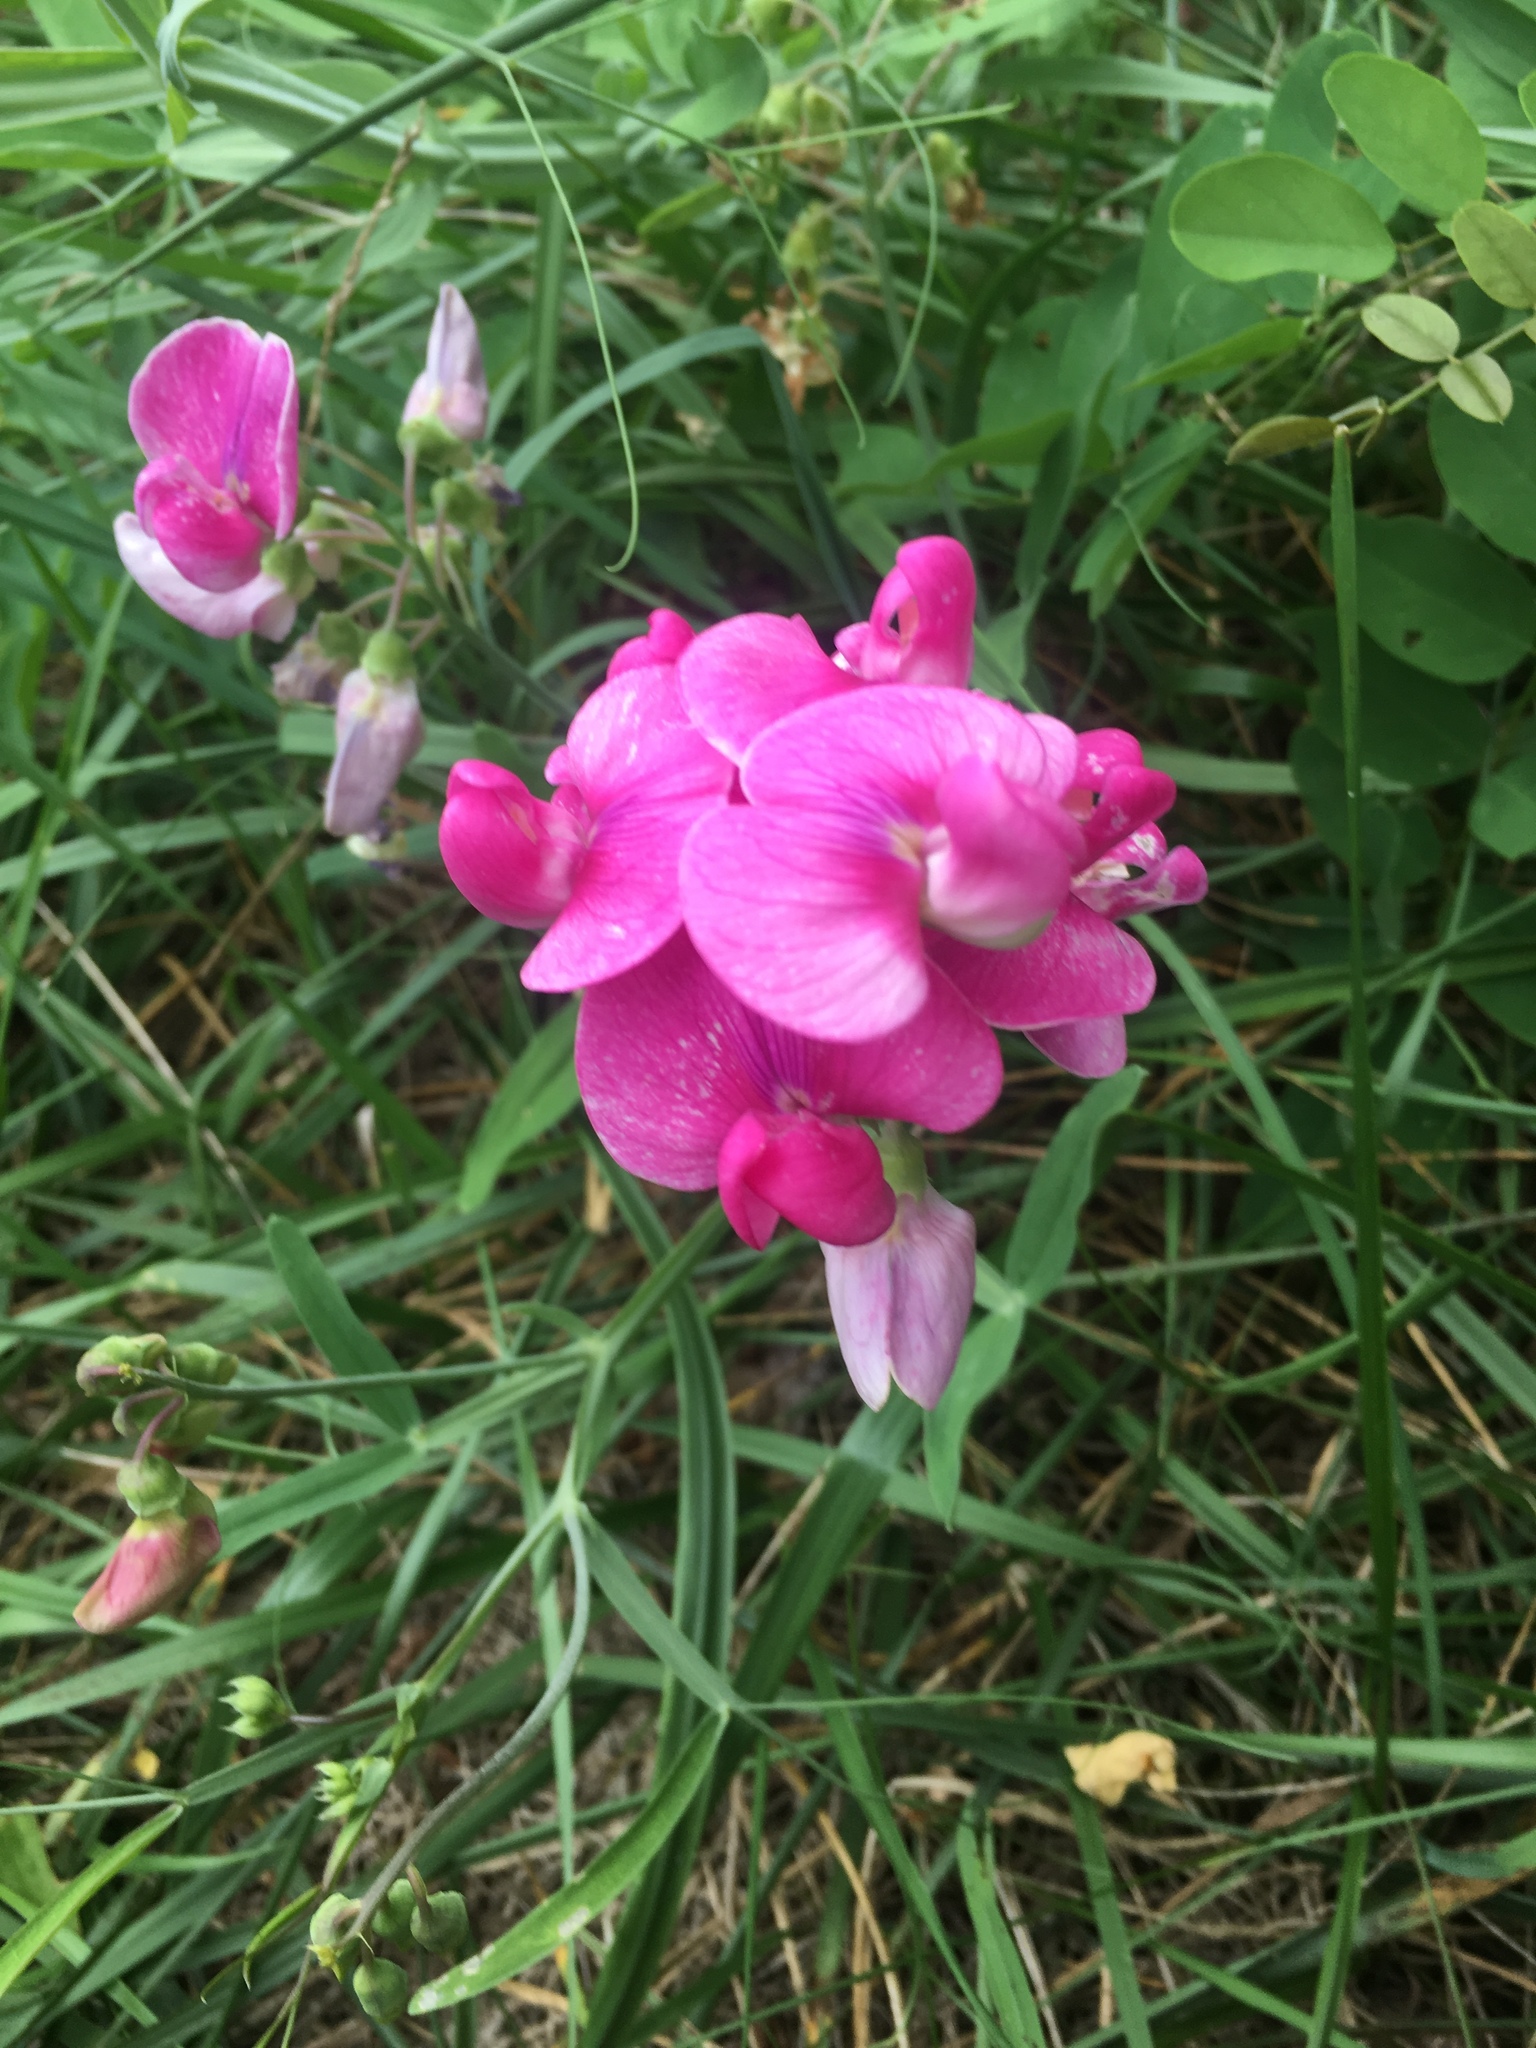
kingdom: Plantae
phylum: Tracheophyta
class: Magnoliopsida
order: Fabales
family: Fabaceae
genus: Lathyrus
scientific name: Lathyrus latifolius
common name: Perennial pea
